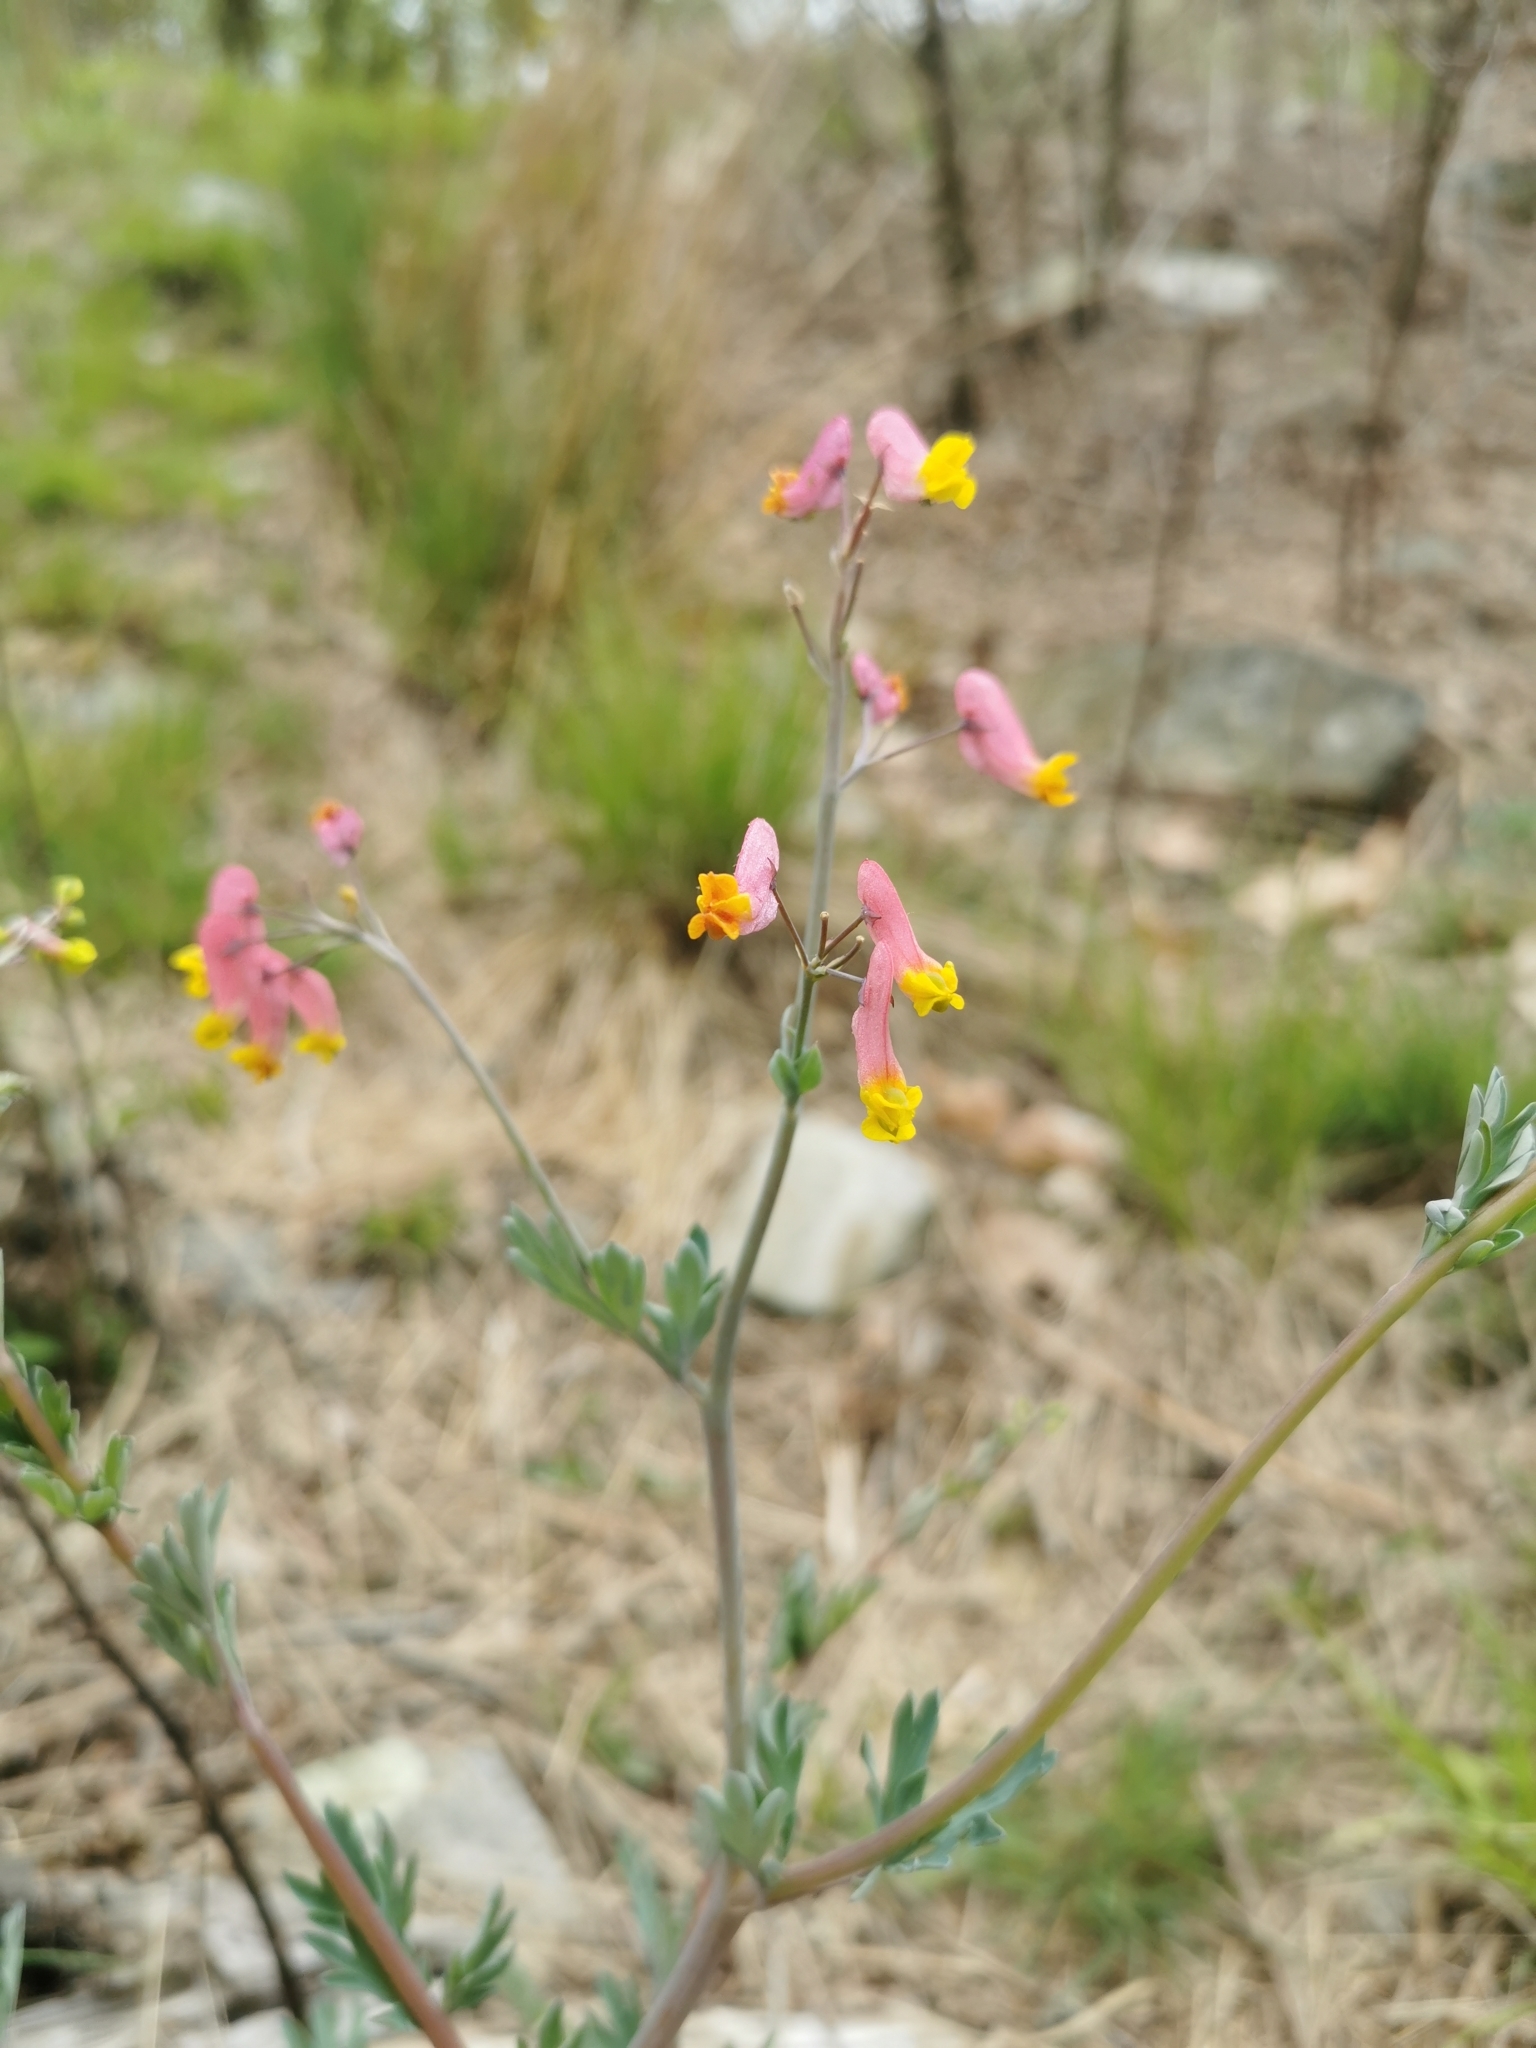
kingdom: Plantae
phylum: Tracheophyta
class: Magnoliopsida
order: Ranunculales
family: Papaveraceae
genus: Capnoides
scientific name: Capnoides sempervirens
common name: Rock harlequin
